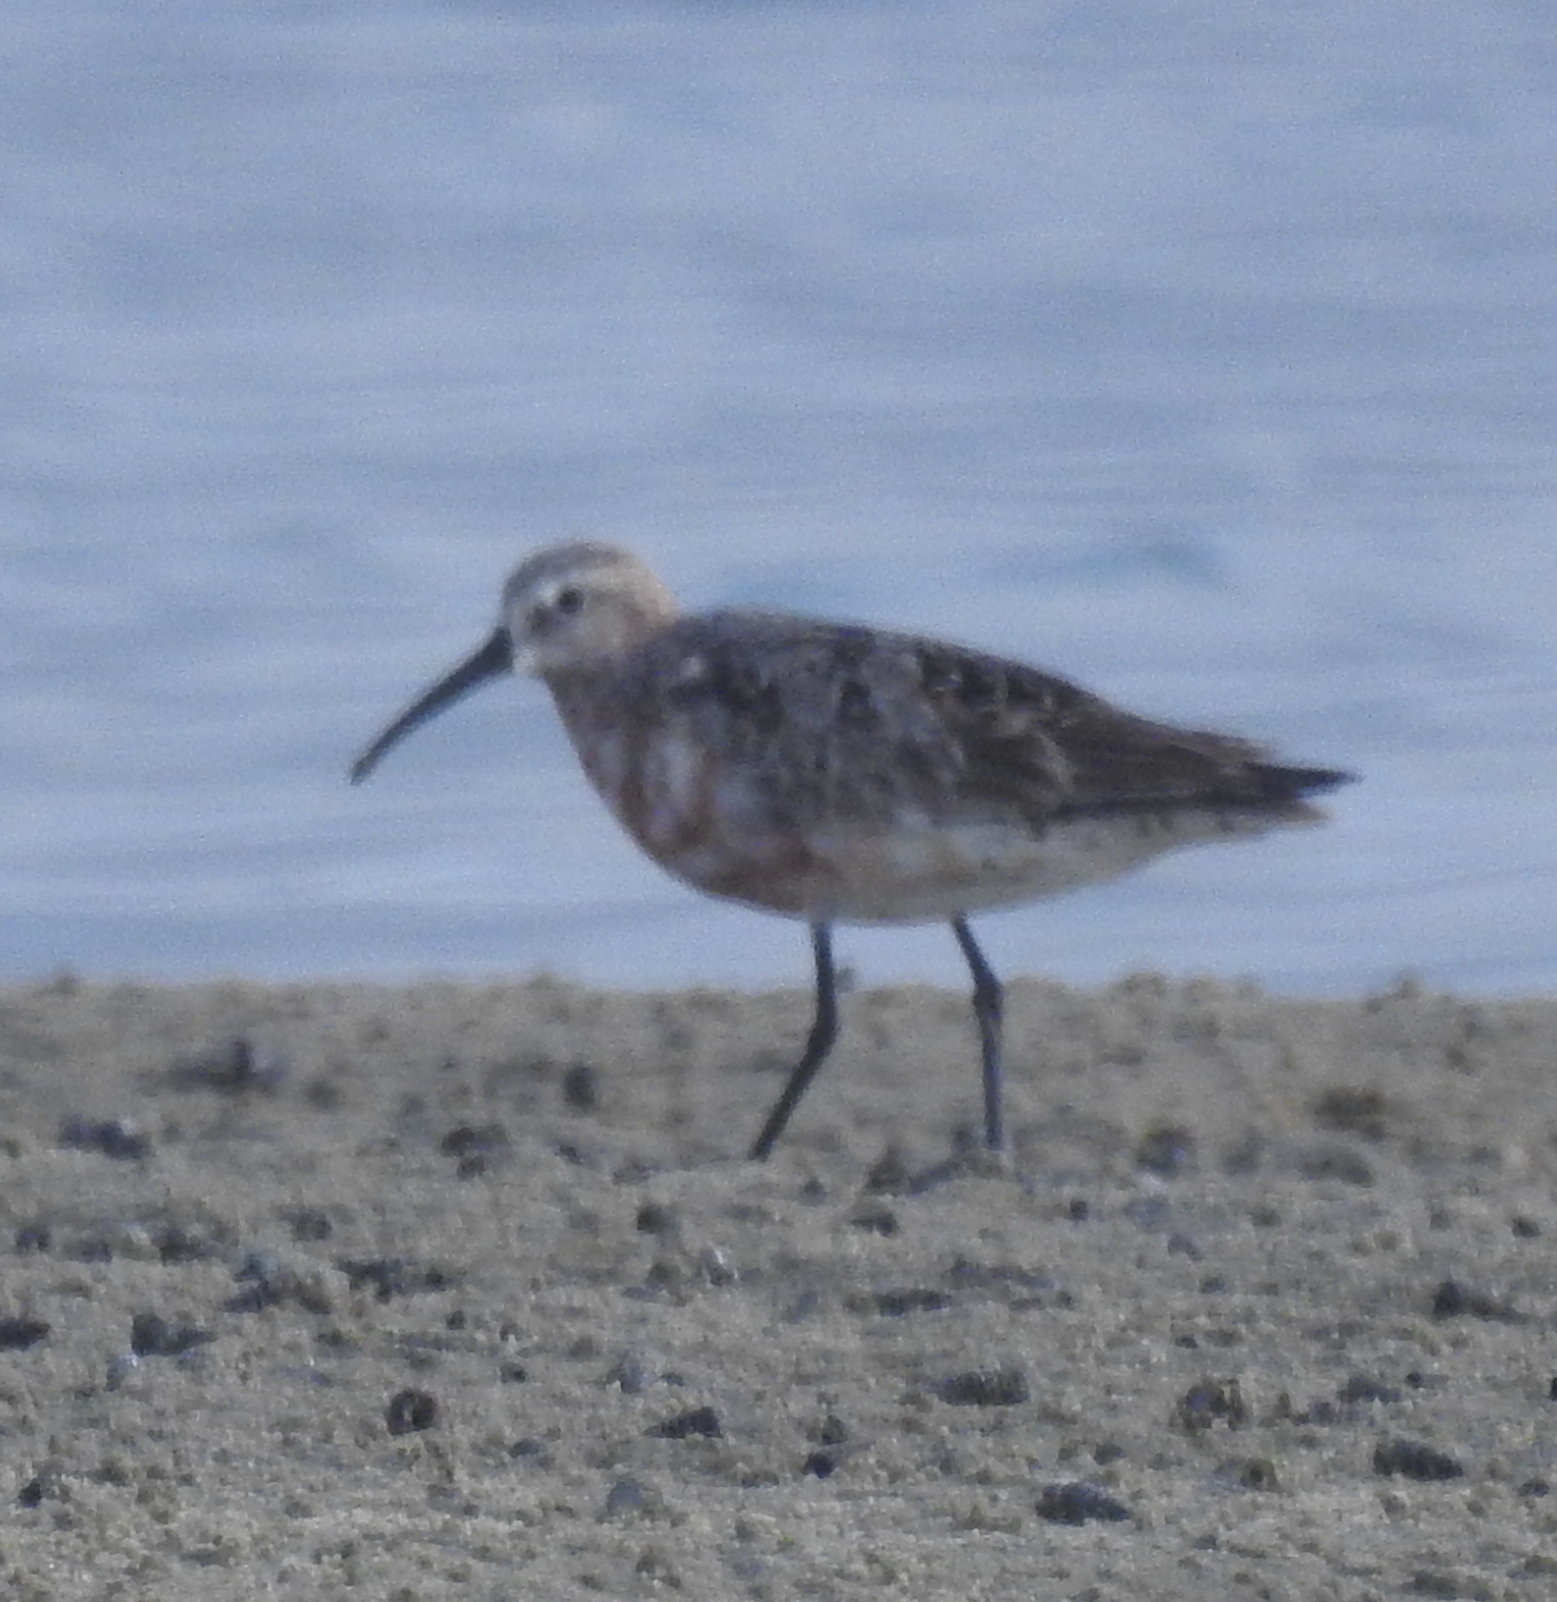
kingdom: Animalia
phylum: Chordata
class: Aves
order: Charadriiformes
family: Scolopacidae
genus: Calidris
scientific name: Calidris ferruginea
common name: Curlew sandpiper
